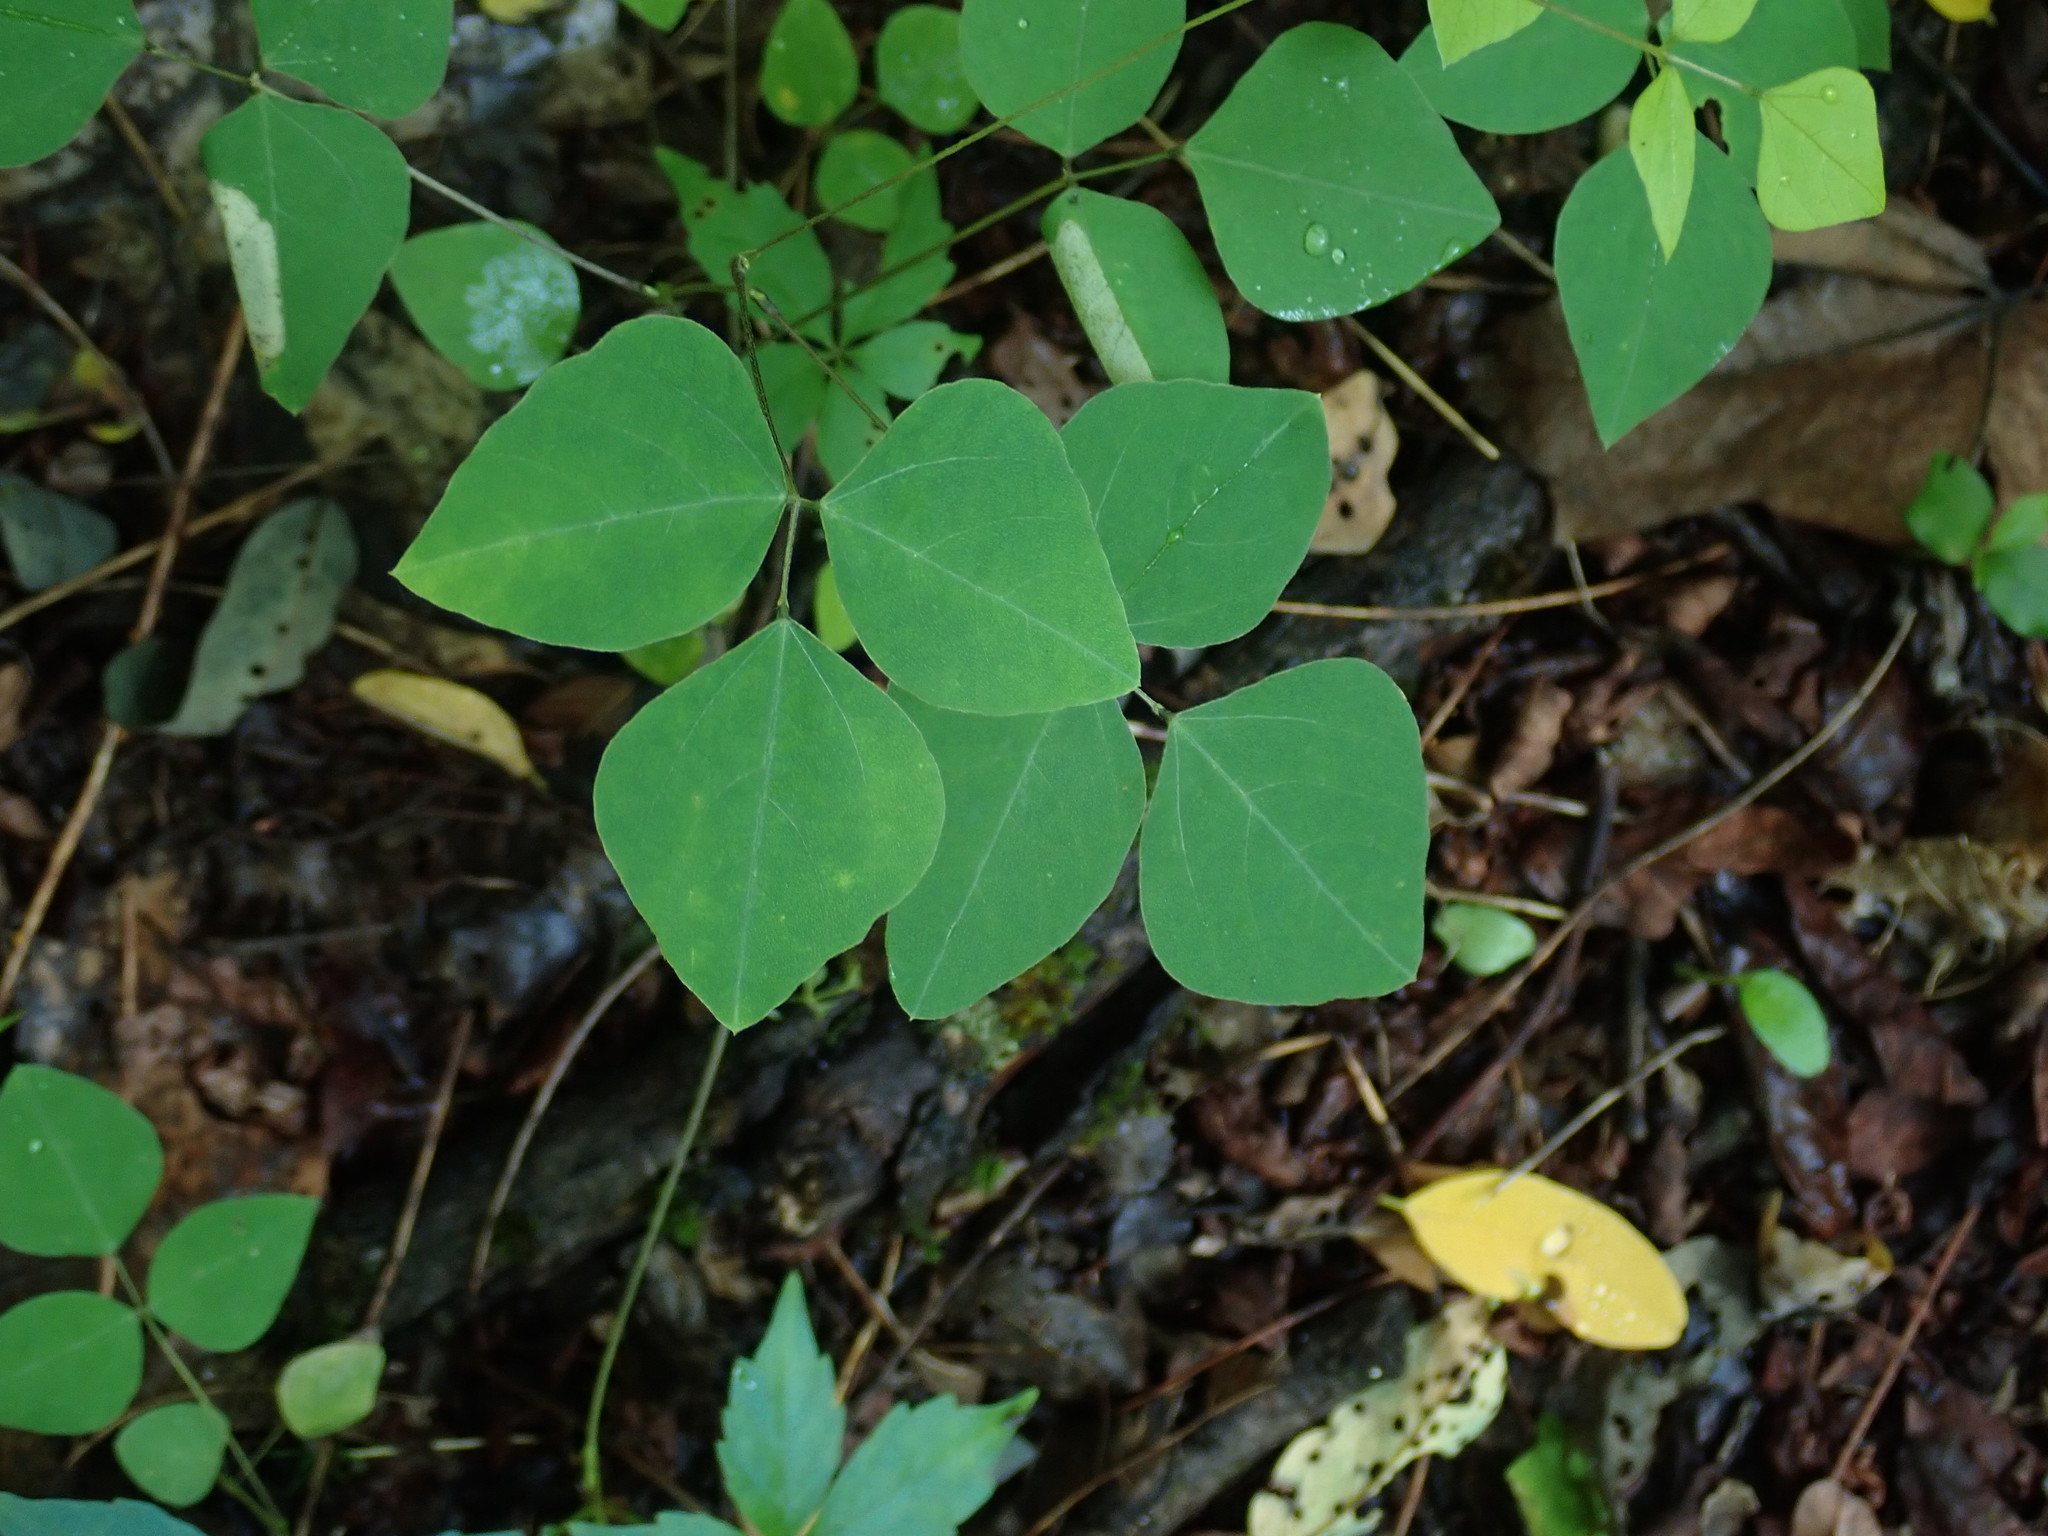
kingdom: Plantae
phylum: Tracheophyta
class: Magnoliopsida
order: Fabales
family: Fabaceae
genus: Amphicarpaea
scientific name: Amphicarpaea bracteata
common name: American hog peanut
